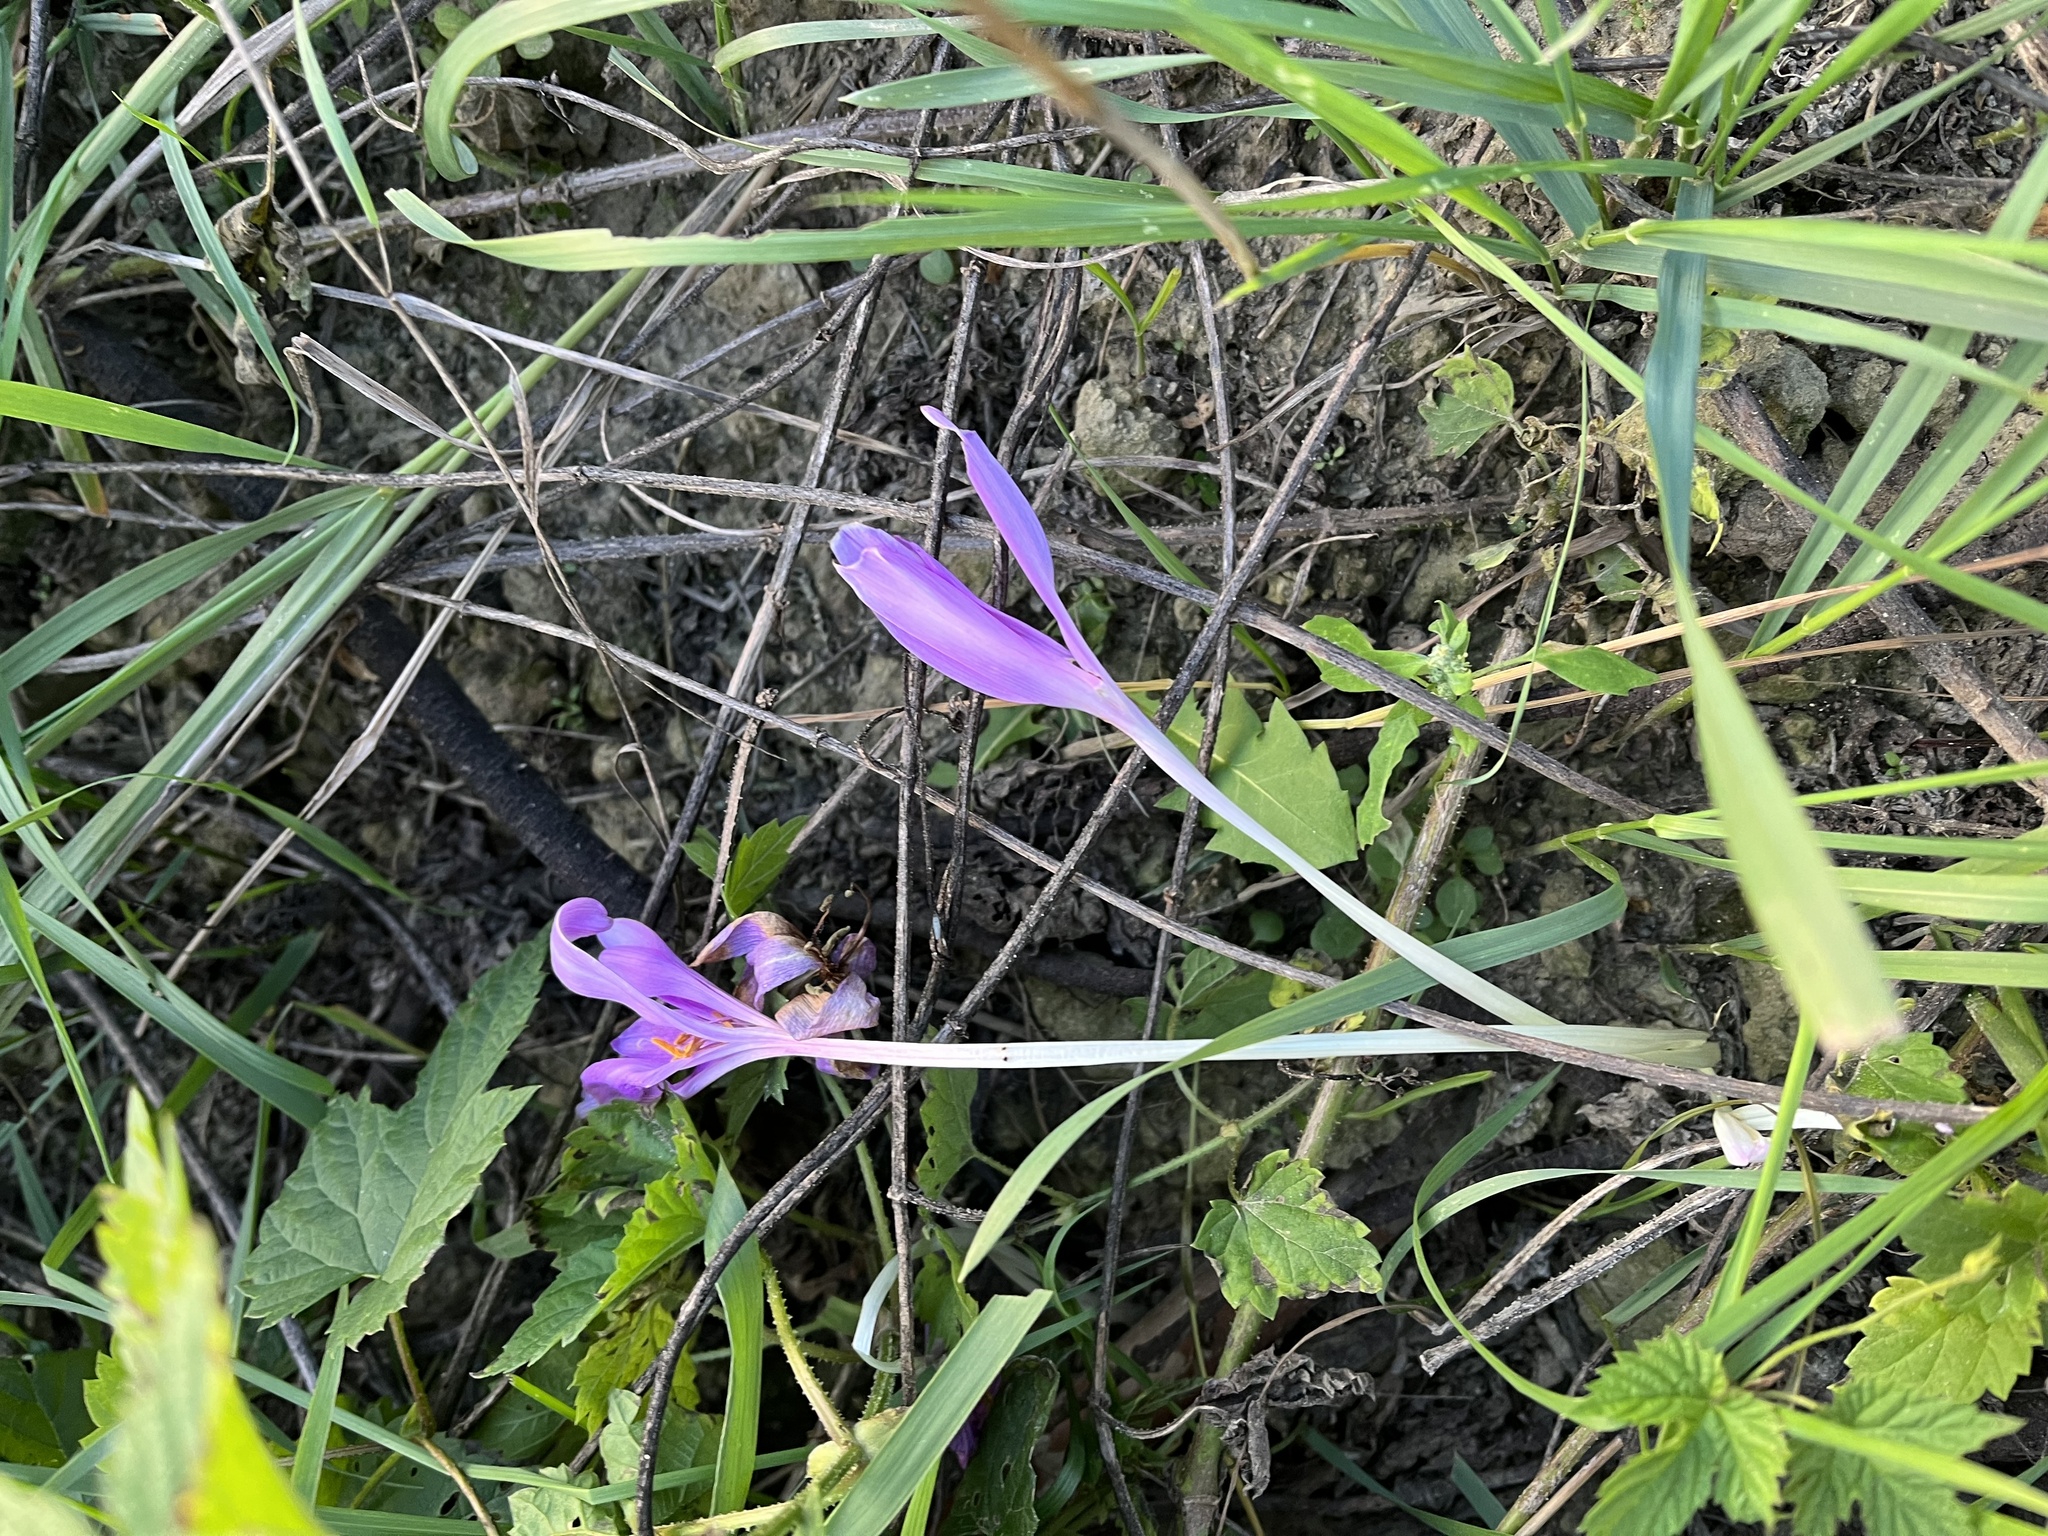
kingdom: Plantae
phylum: Tracheophyta
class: Liliopsida
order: Liliales
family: Colchicaceae
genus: Colchicum
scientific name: Colchicum autumnale
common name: Autumn crocus
